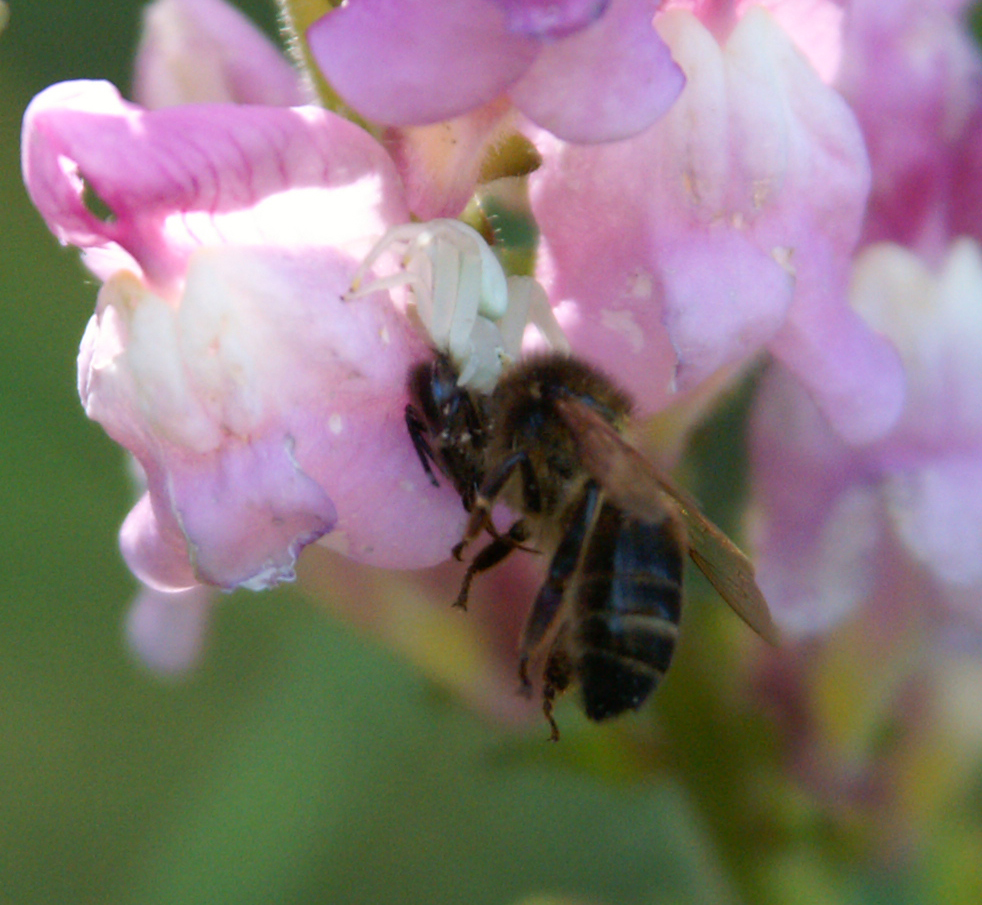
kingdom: Animalia
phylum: Arthropoda
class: Arachnida
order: Araneae
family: Thomisidae
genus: Misumena
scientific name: Misumena vatia
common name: Goldenrod crab spider
